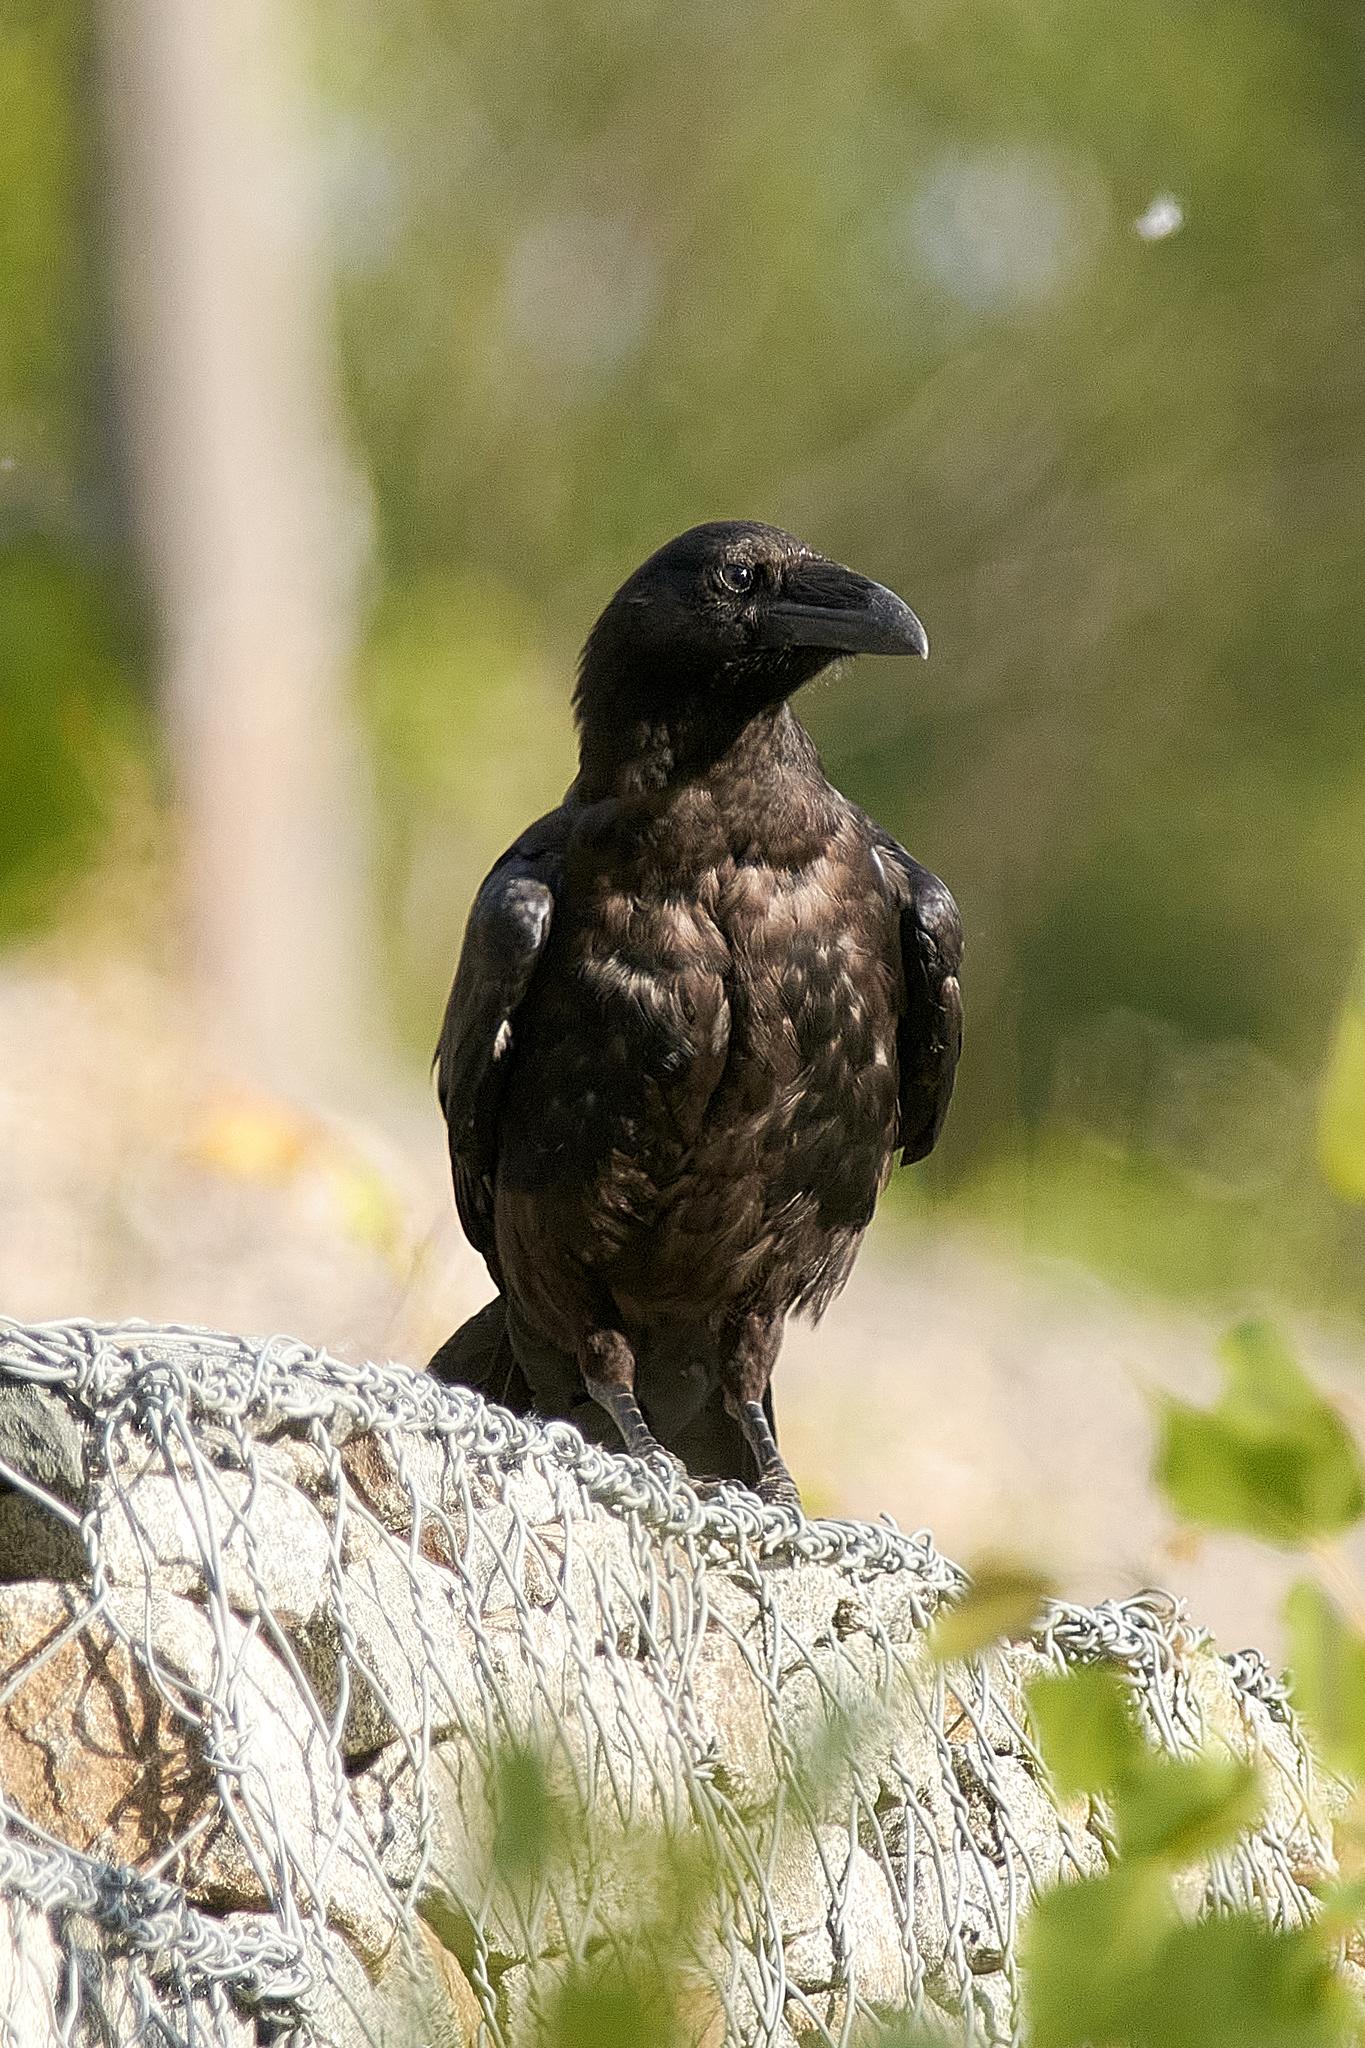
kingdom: Animalia
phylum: Chordata
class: Aves
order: Passeriformes
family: Corvidae
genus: Corvus
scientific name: Corvus corax
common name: Common raven
